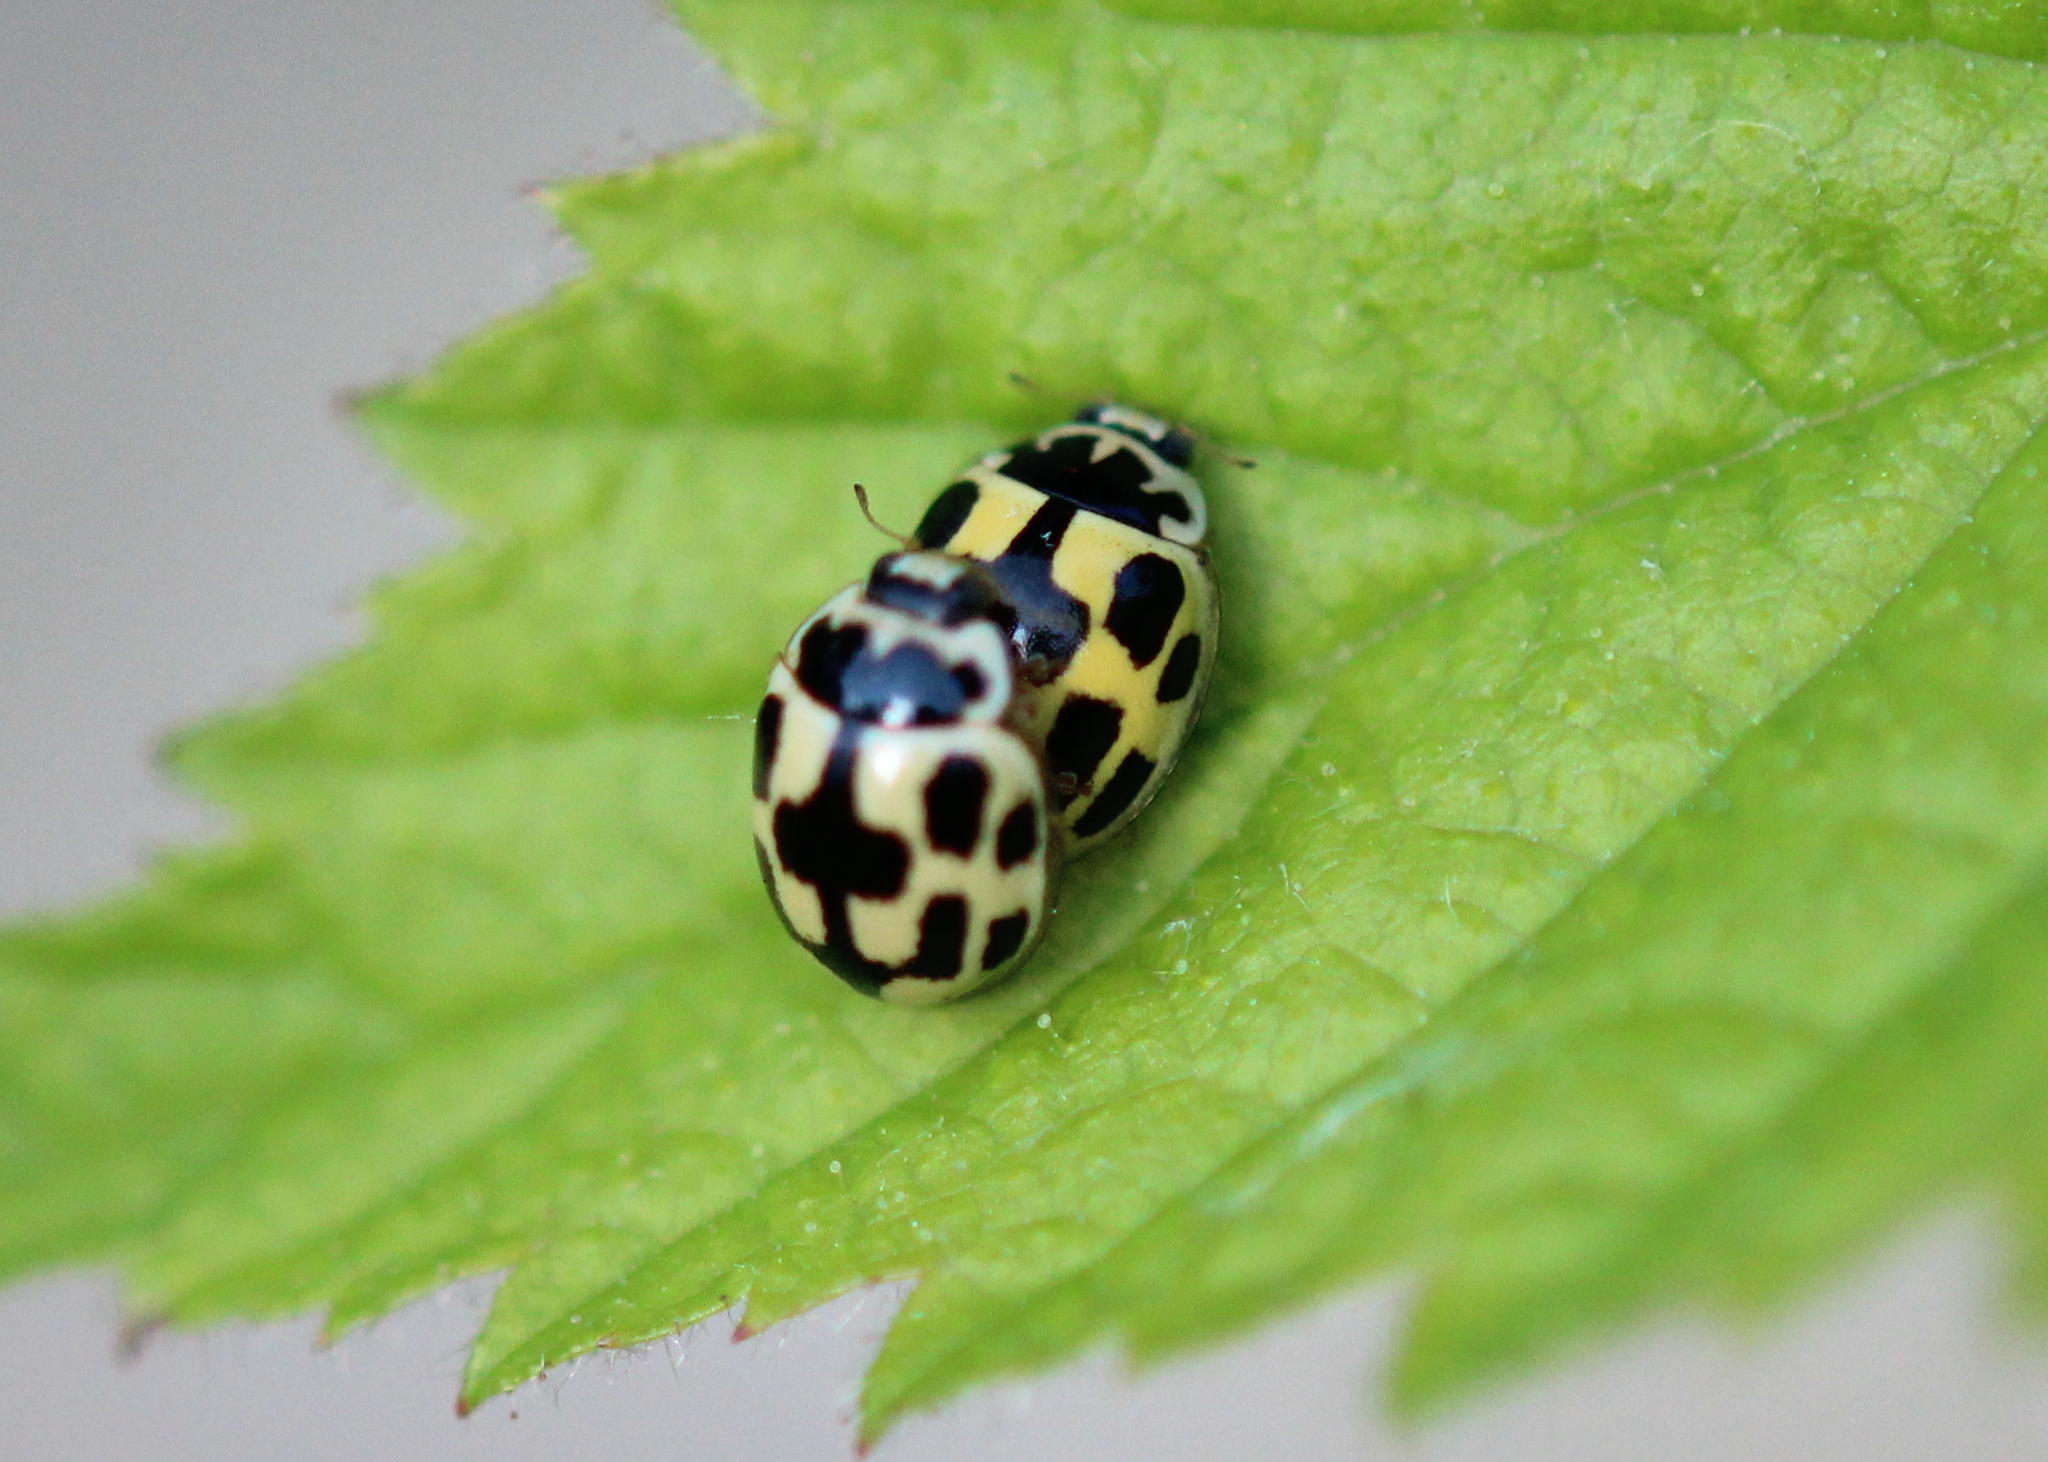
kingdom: Animalia
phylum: Arthropoda
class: Insecta
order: Coleoptera
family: Coccinellidae
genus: Propylaea
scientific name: Propylaea quatuordecimpunctata
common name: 14-spotted ladybird beetle
